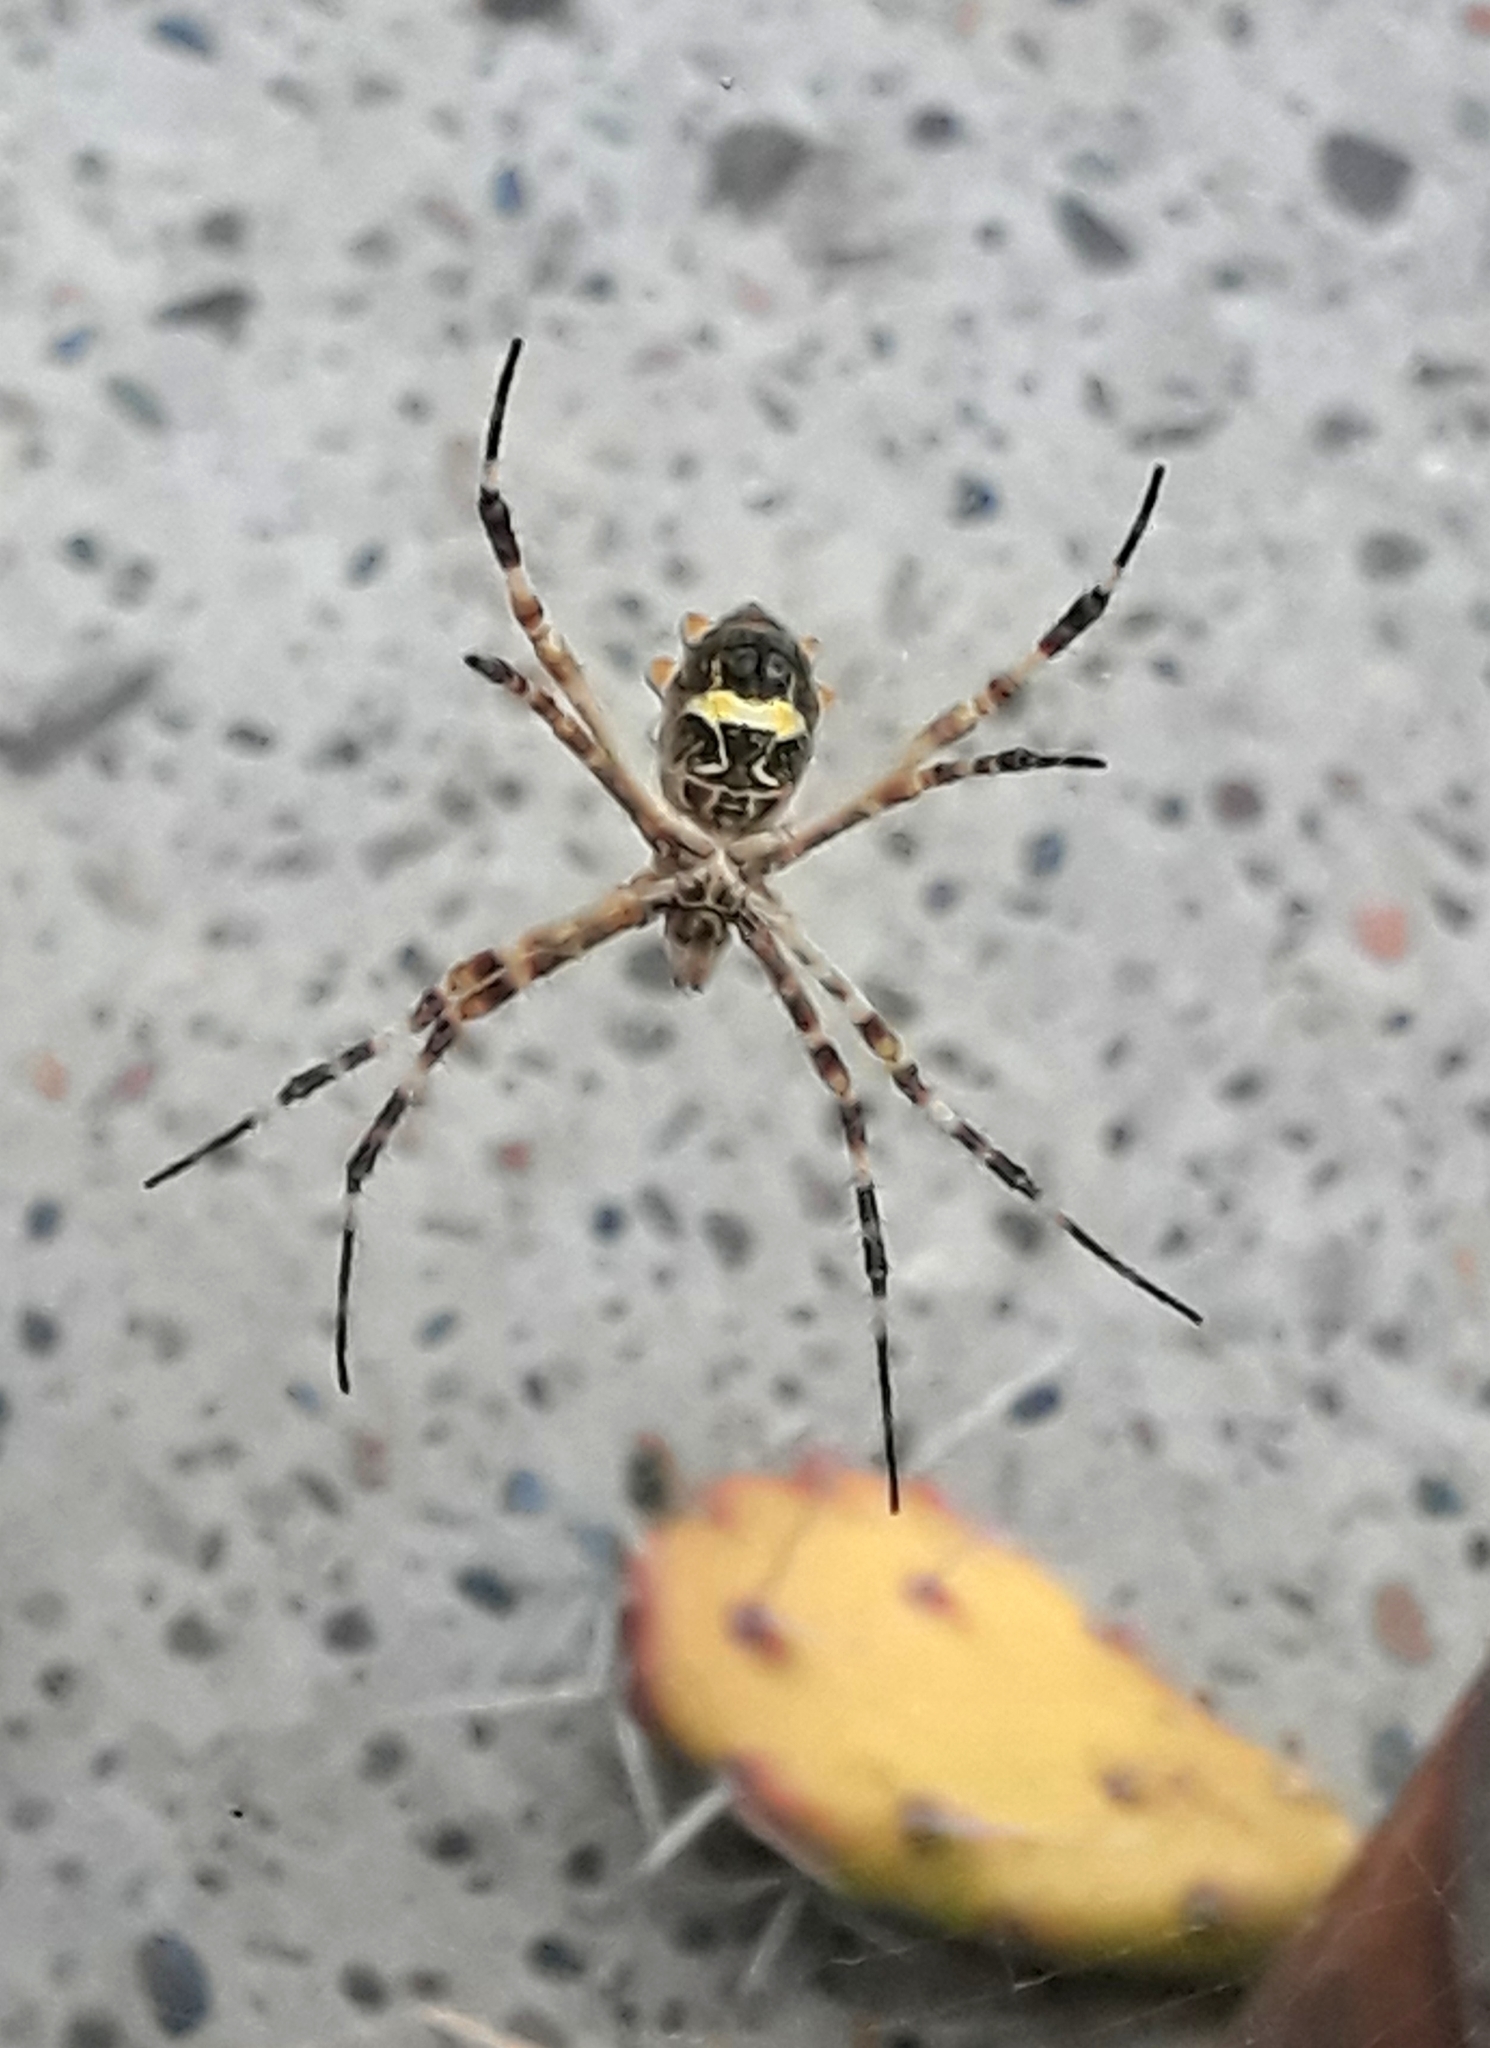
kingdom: Animalia
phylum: Arthropoda
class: Arachnida
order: Araneae
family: Araneidae
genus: Argiope
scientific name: Argiope argentata
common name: Orb weavers
